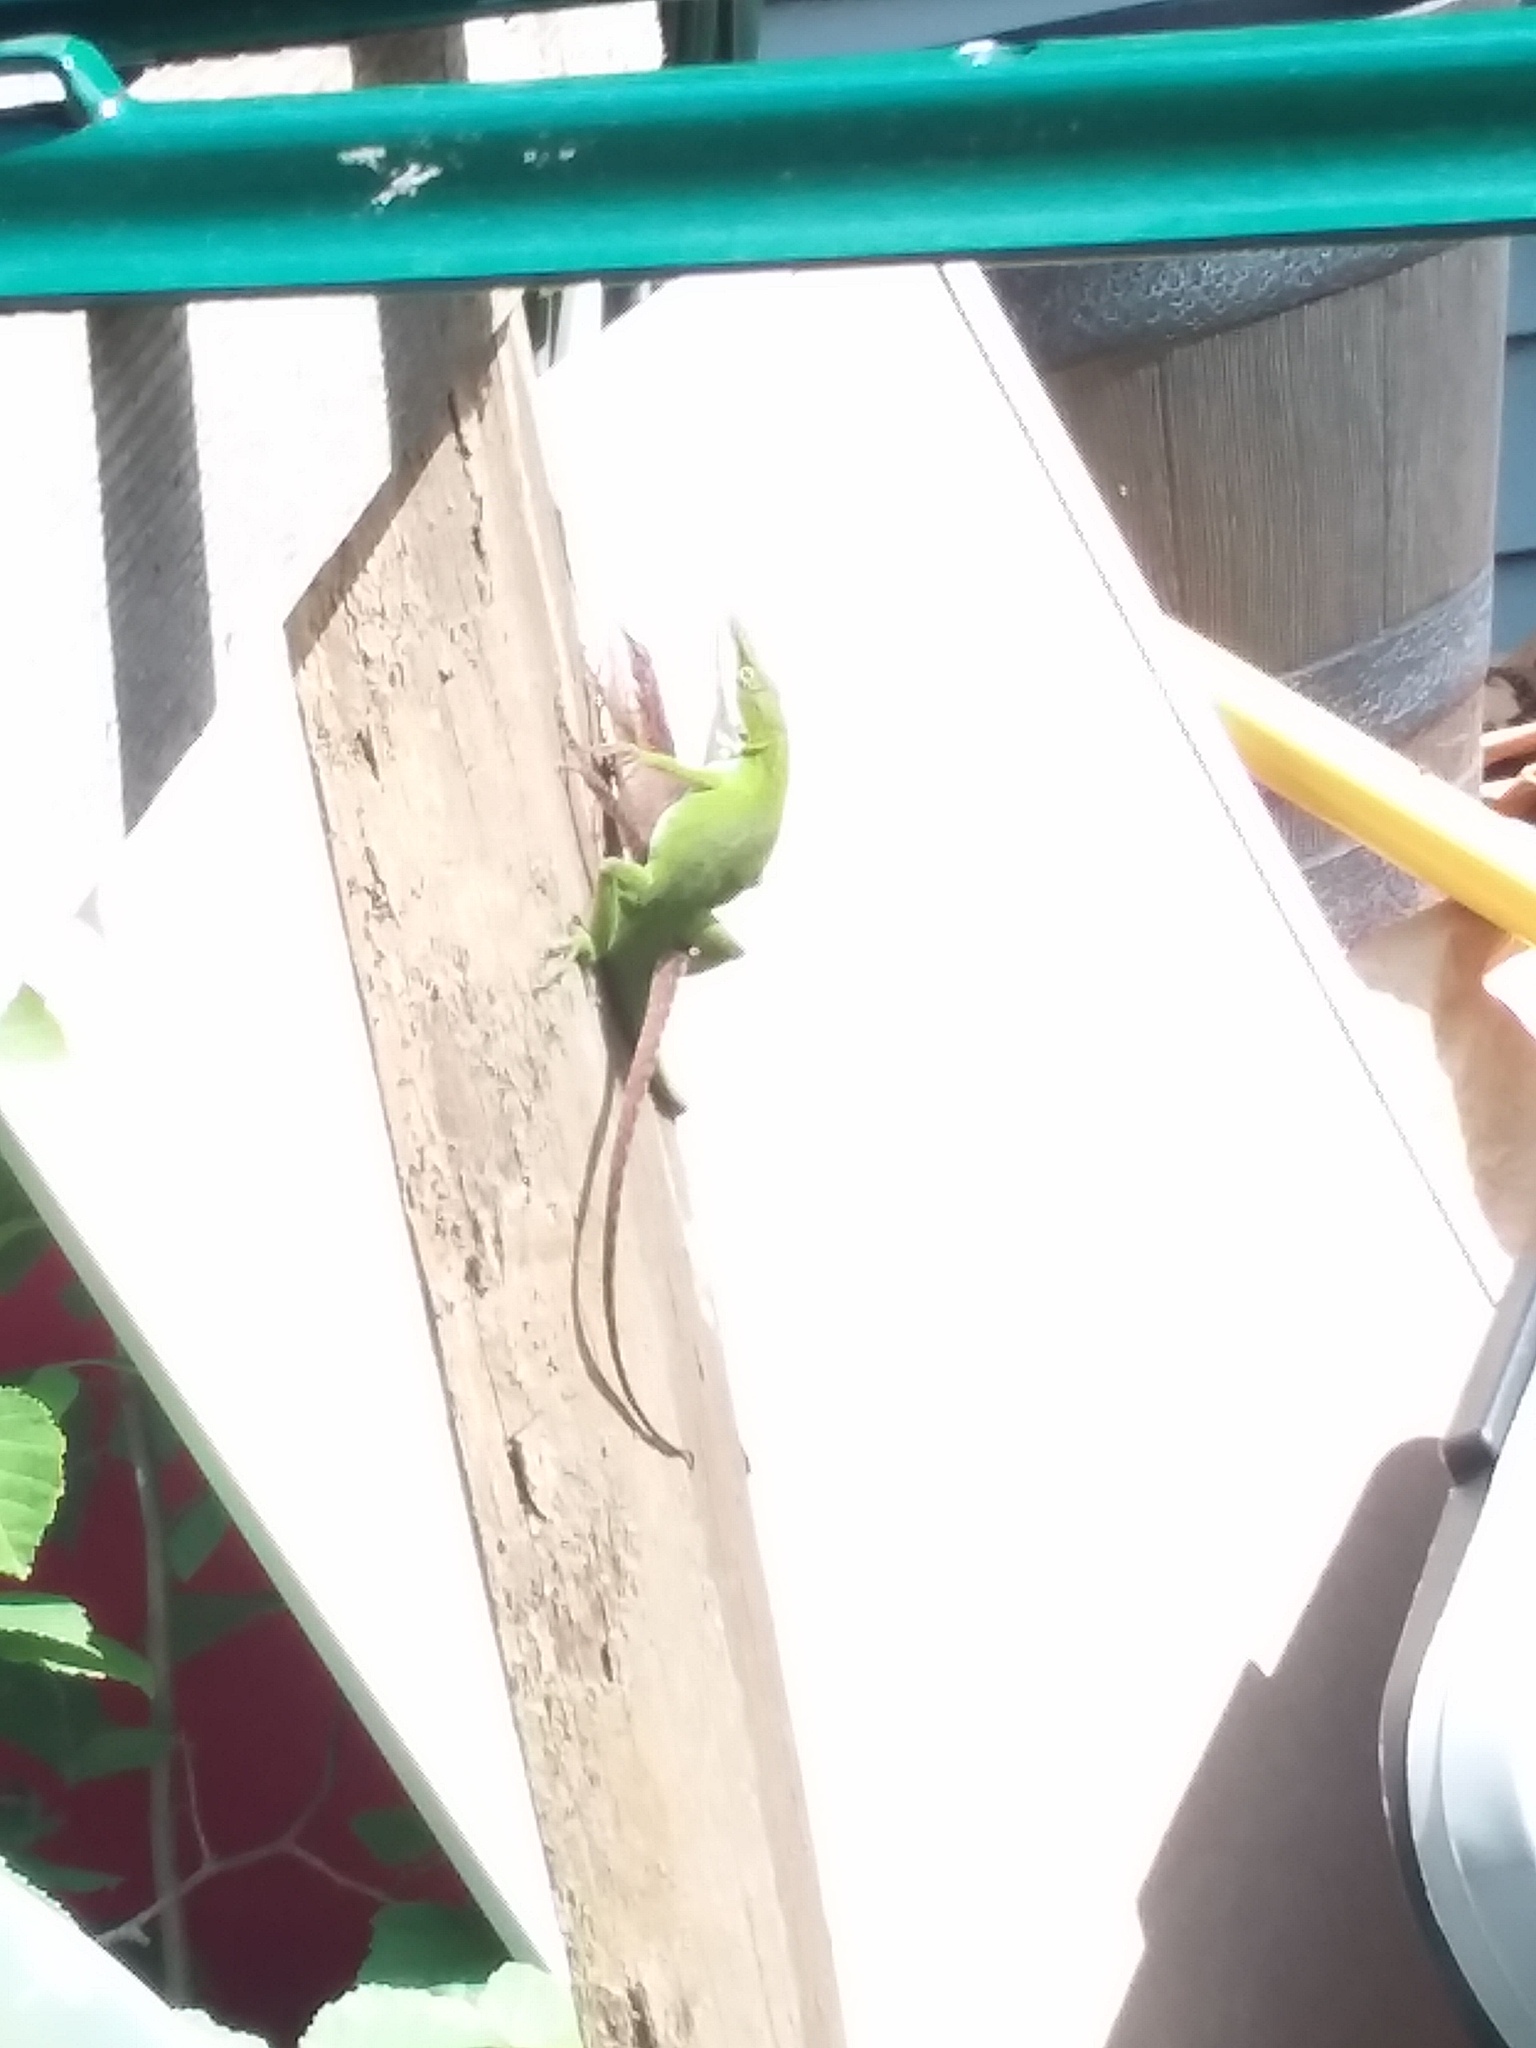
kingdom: Animalia
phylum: Chordata
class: Squamata
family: Dactyloidae
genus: Anolis
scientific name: Anolis carolinensis
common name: Green anole
